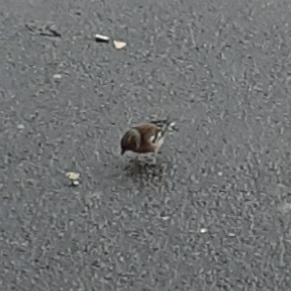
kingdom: Animalia
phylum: Chordata
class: Aves
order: Passeriformes
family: Fringillidae
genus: Fringilla
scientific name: Fringilla coelebs
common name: Common chaffinch
